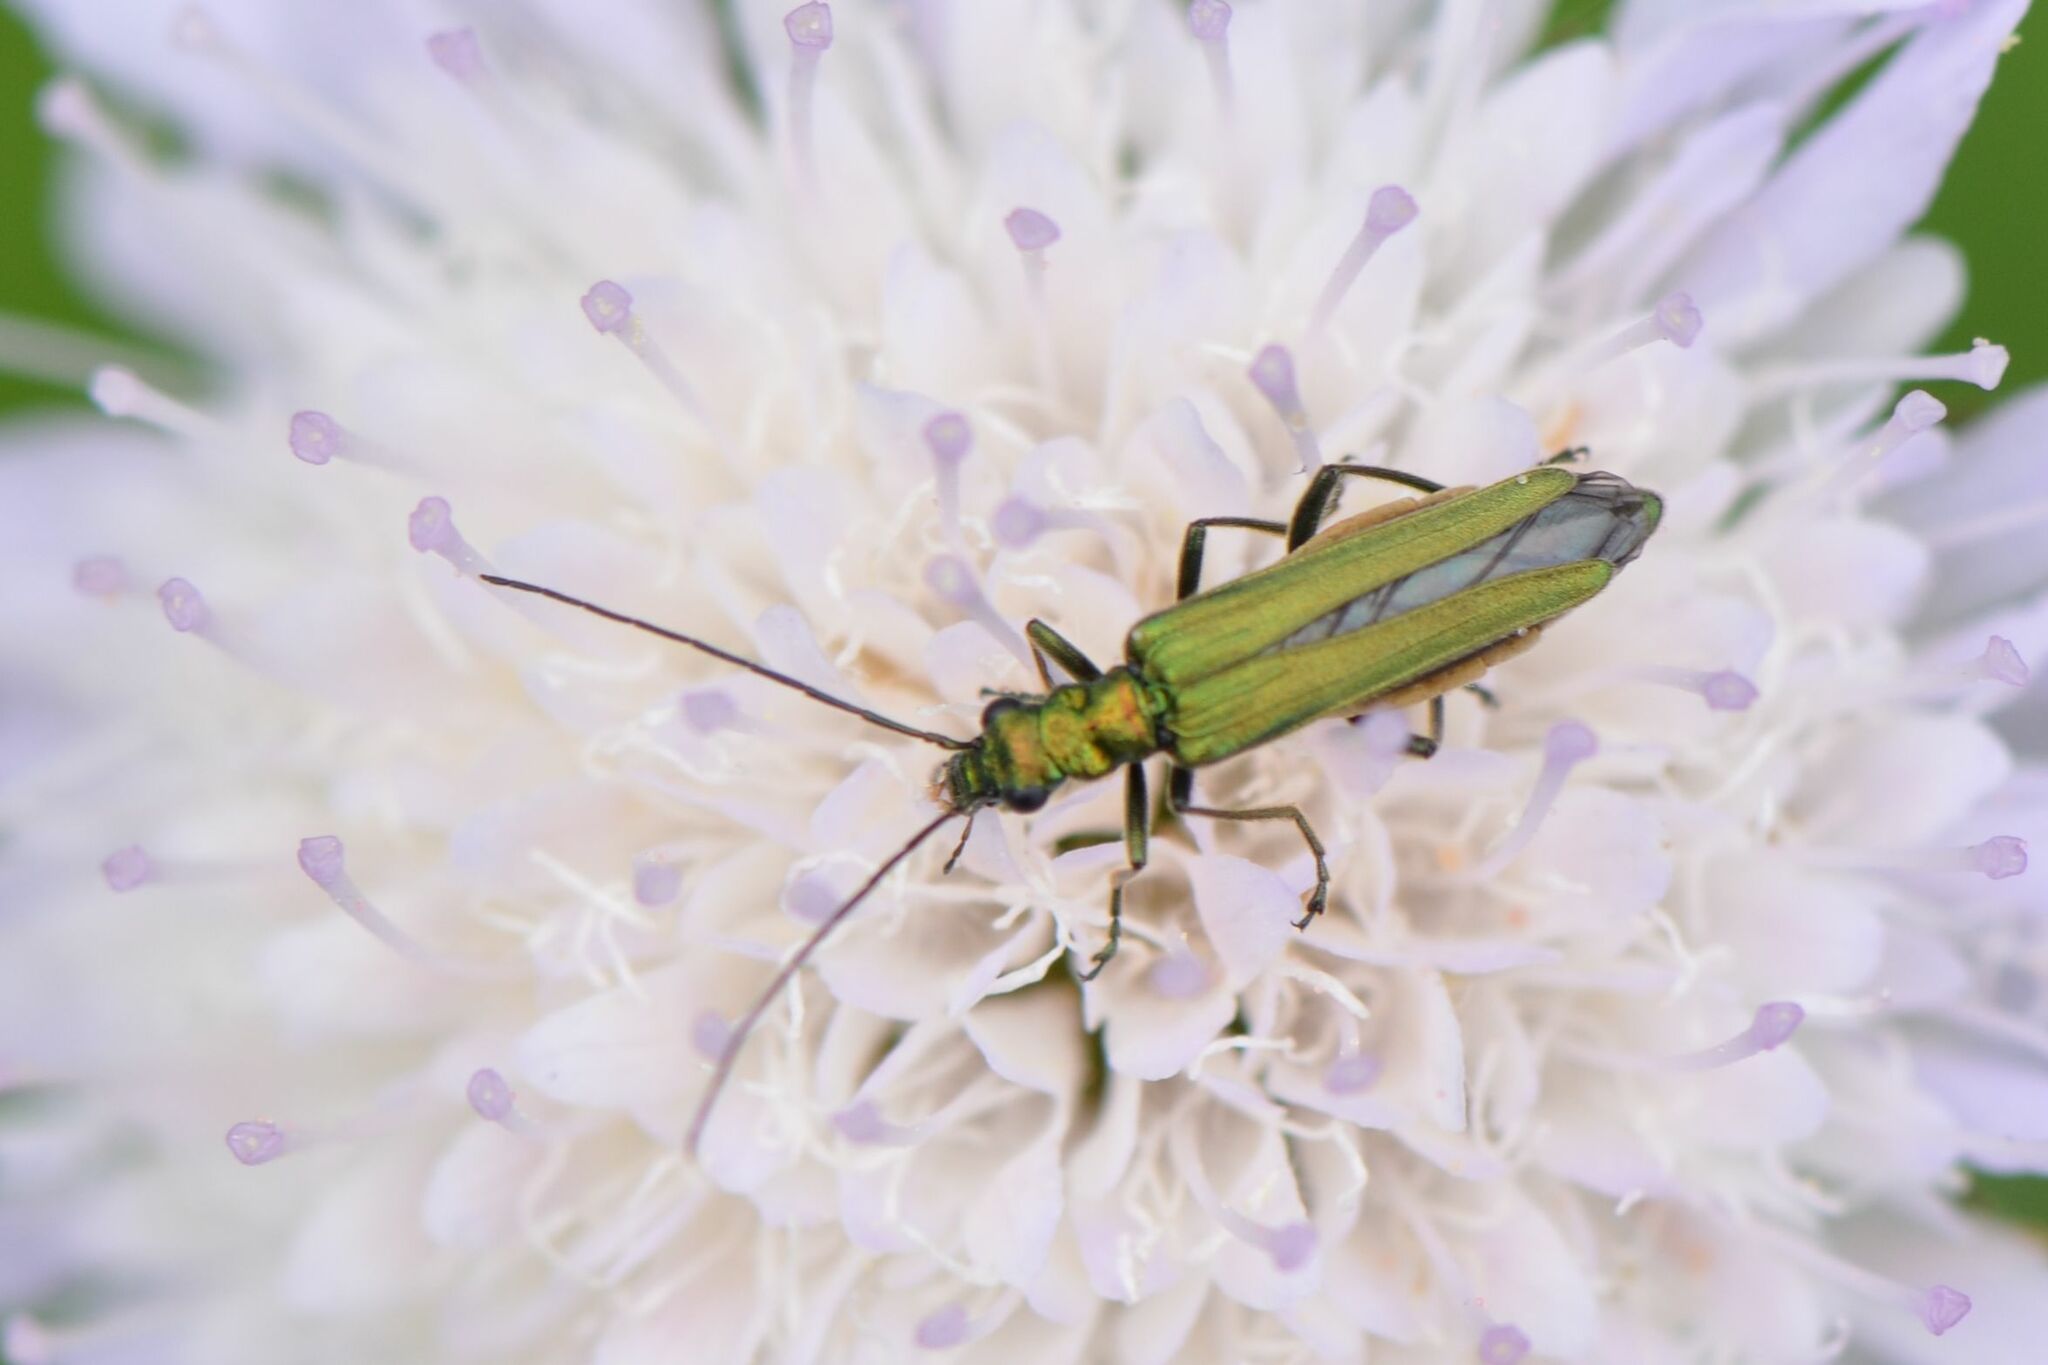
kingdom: Animalia
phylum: Arthropoda
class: Insecta
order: Coleoptera
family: Oedemeridae
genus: Oedemera
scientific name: Oedemera nobilis
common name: Swollen-thighed beetle
